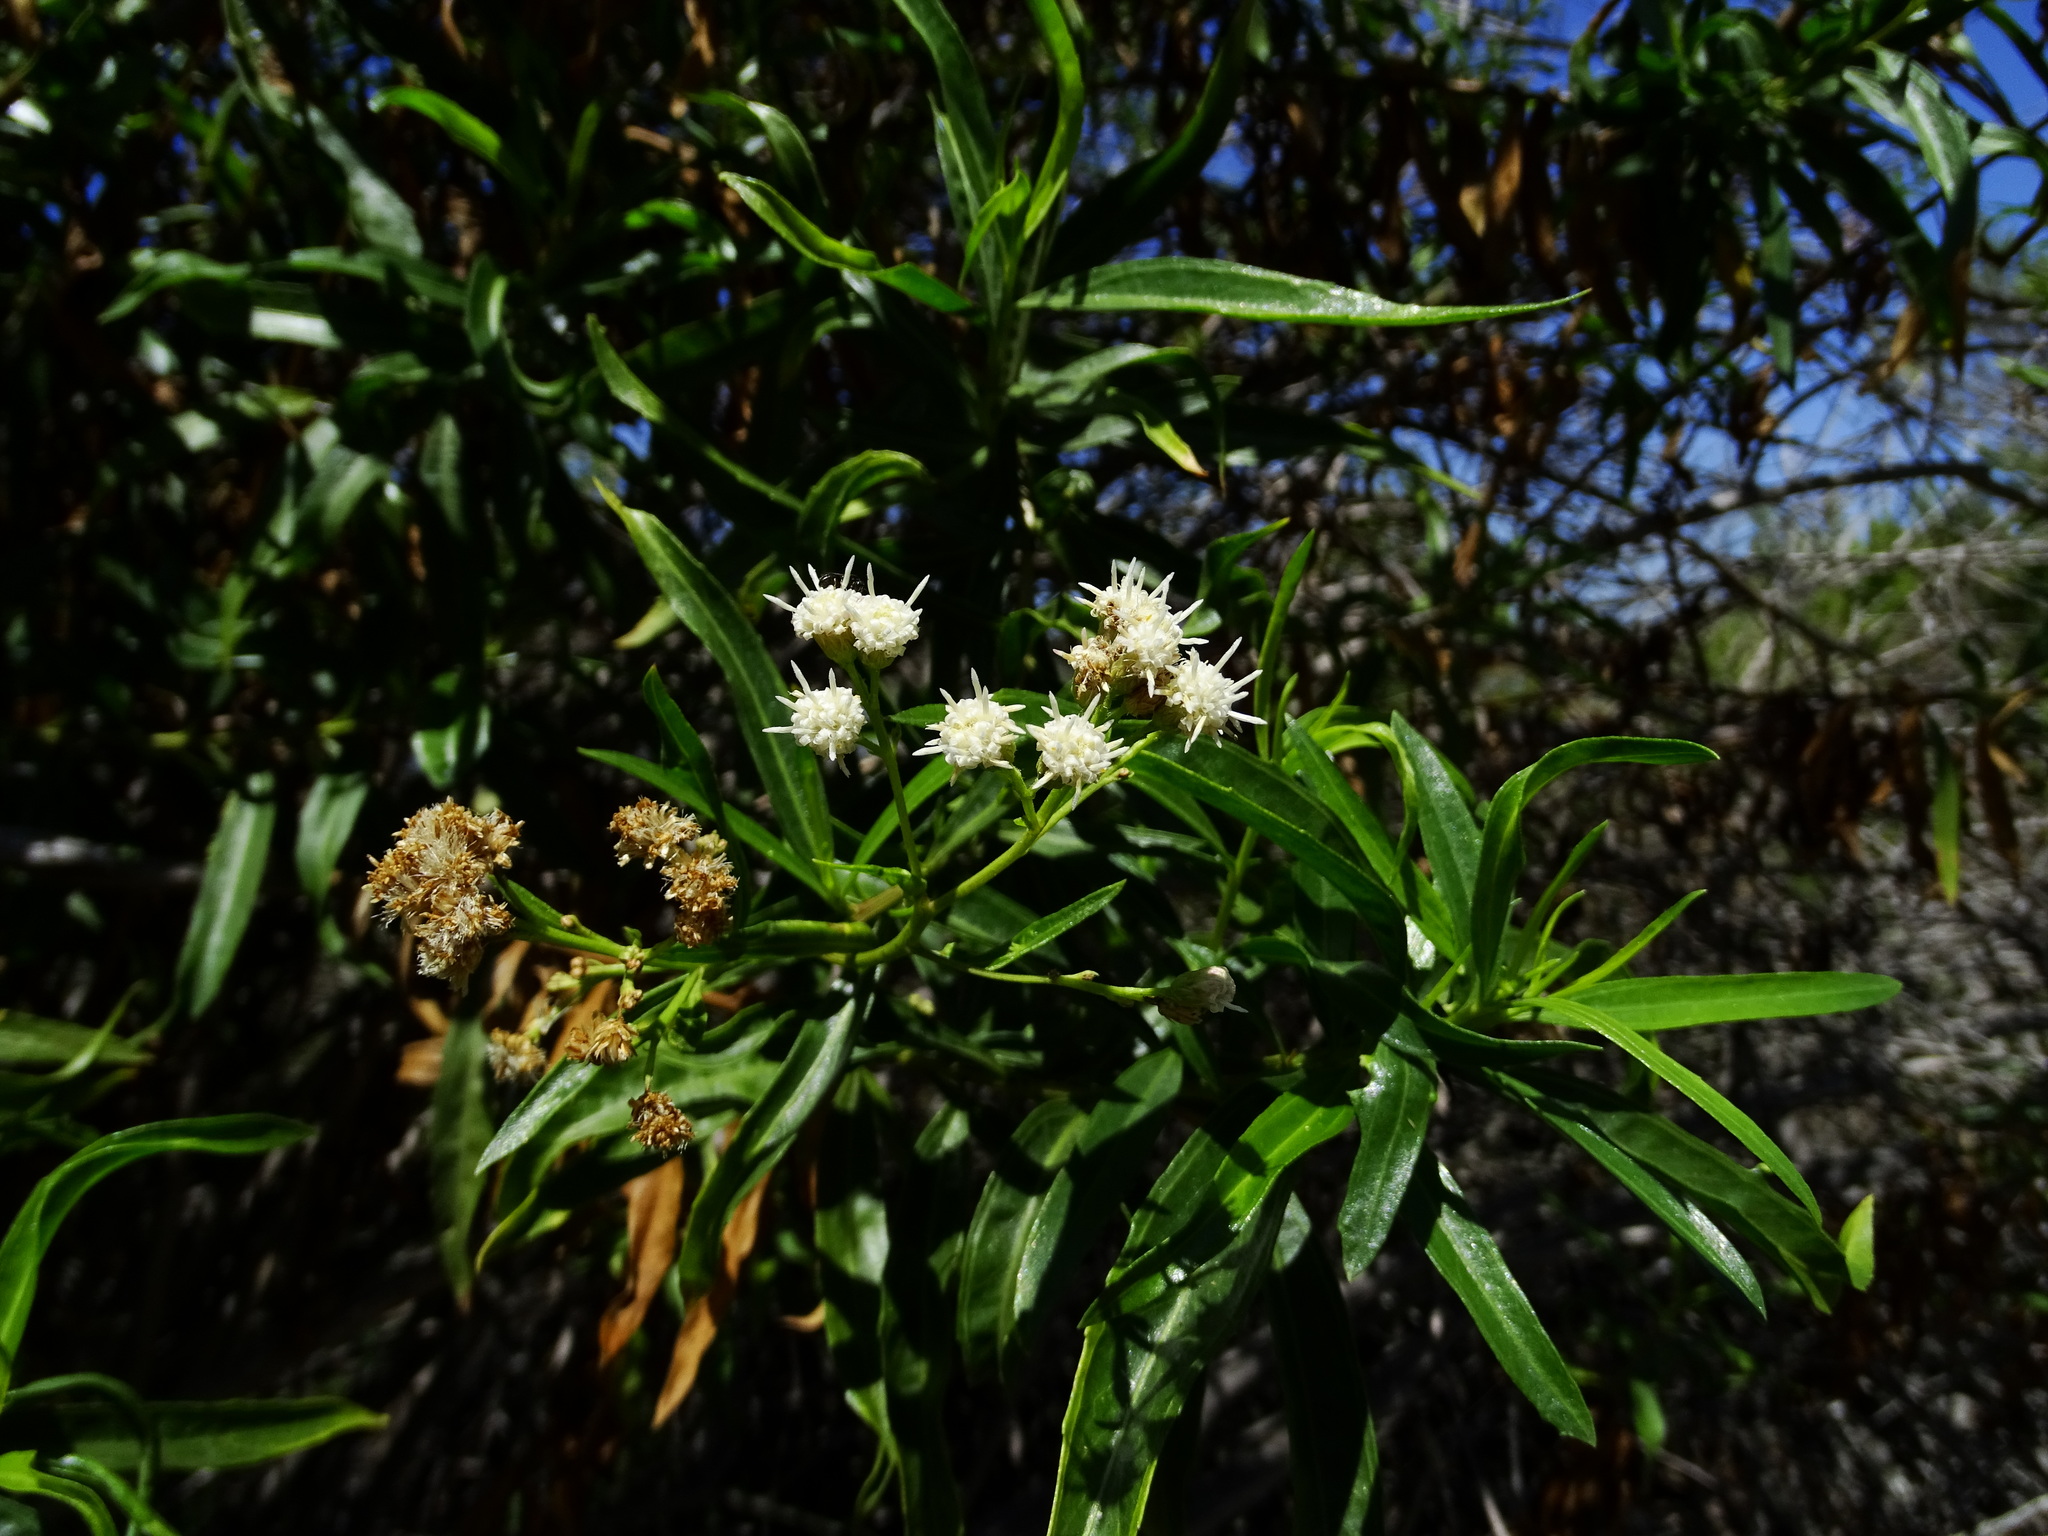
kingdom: Plantae
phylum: Tracheophyta
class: Magnoliopsida
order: Asterales
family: Asteraceae
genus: Baccharis
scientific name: Baccharis salicifolia
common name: Sticky baccharis
